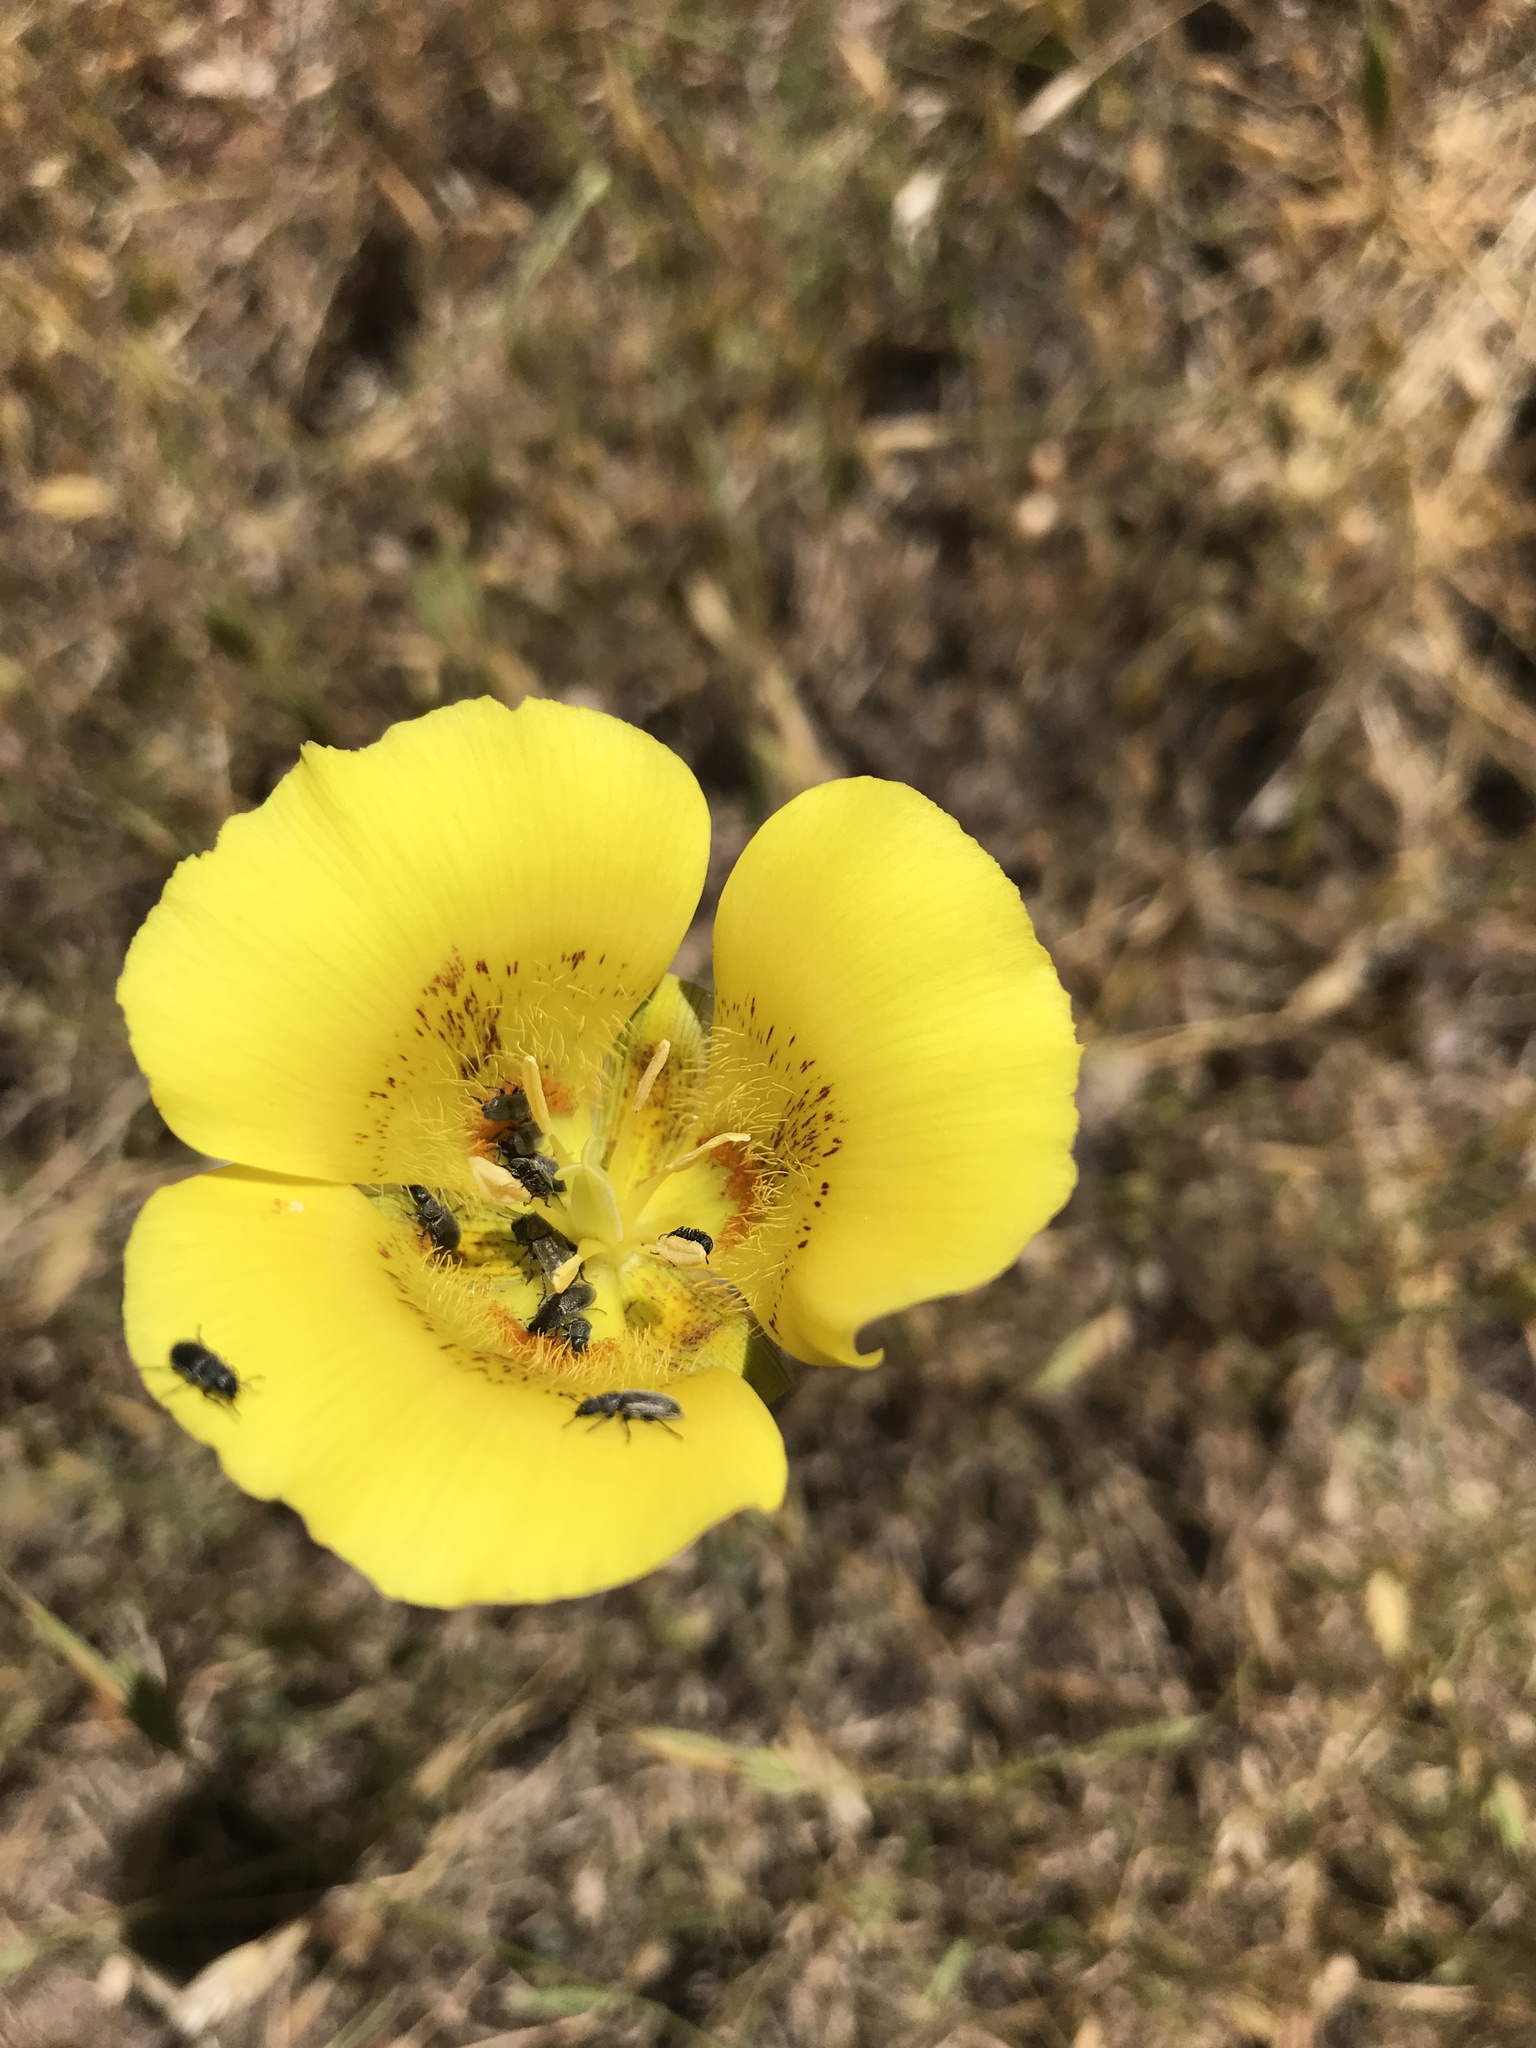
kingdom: Plantae
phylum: Tracheophyta
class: Liliopsida
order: Liliales
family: Liliaceae
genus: Calochortus
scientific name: Calochortus luteus
